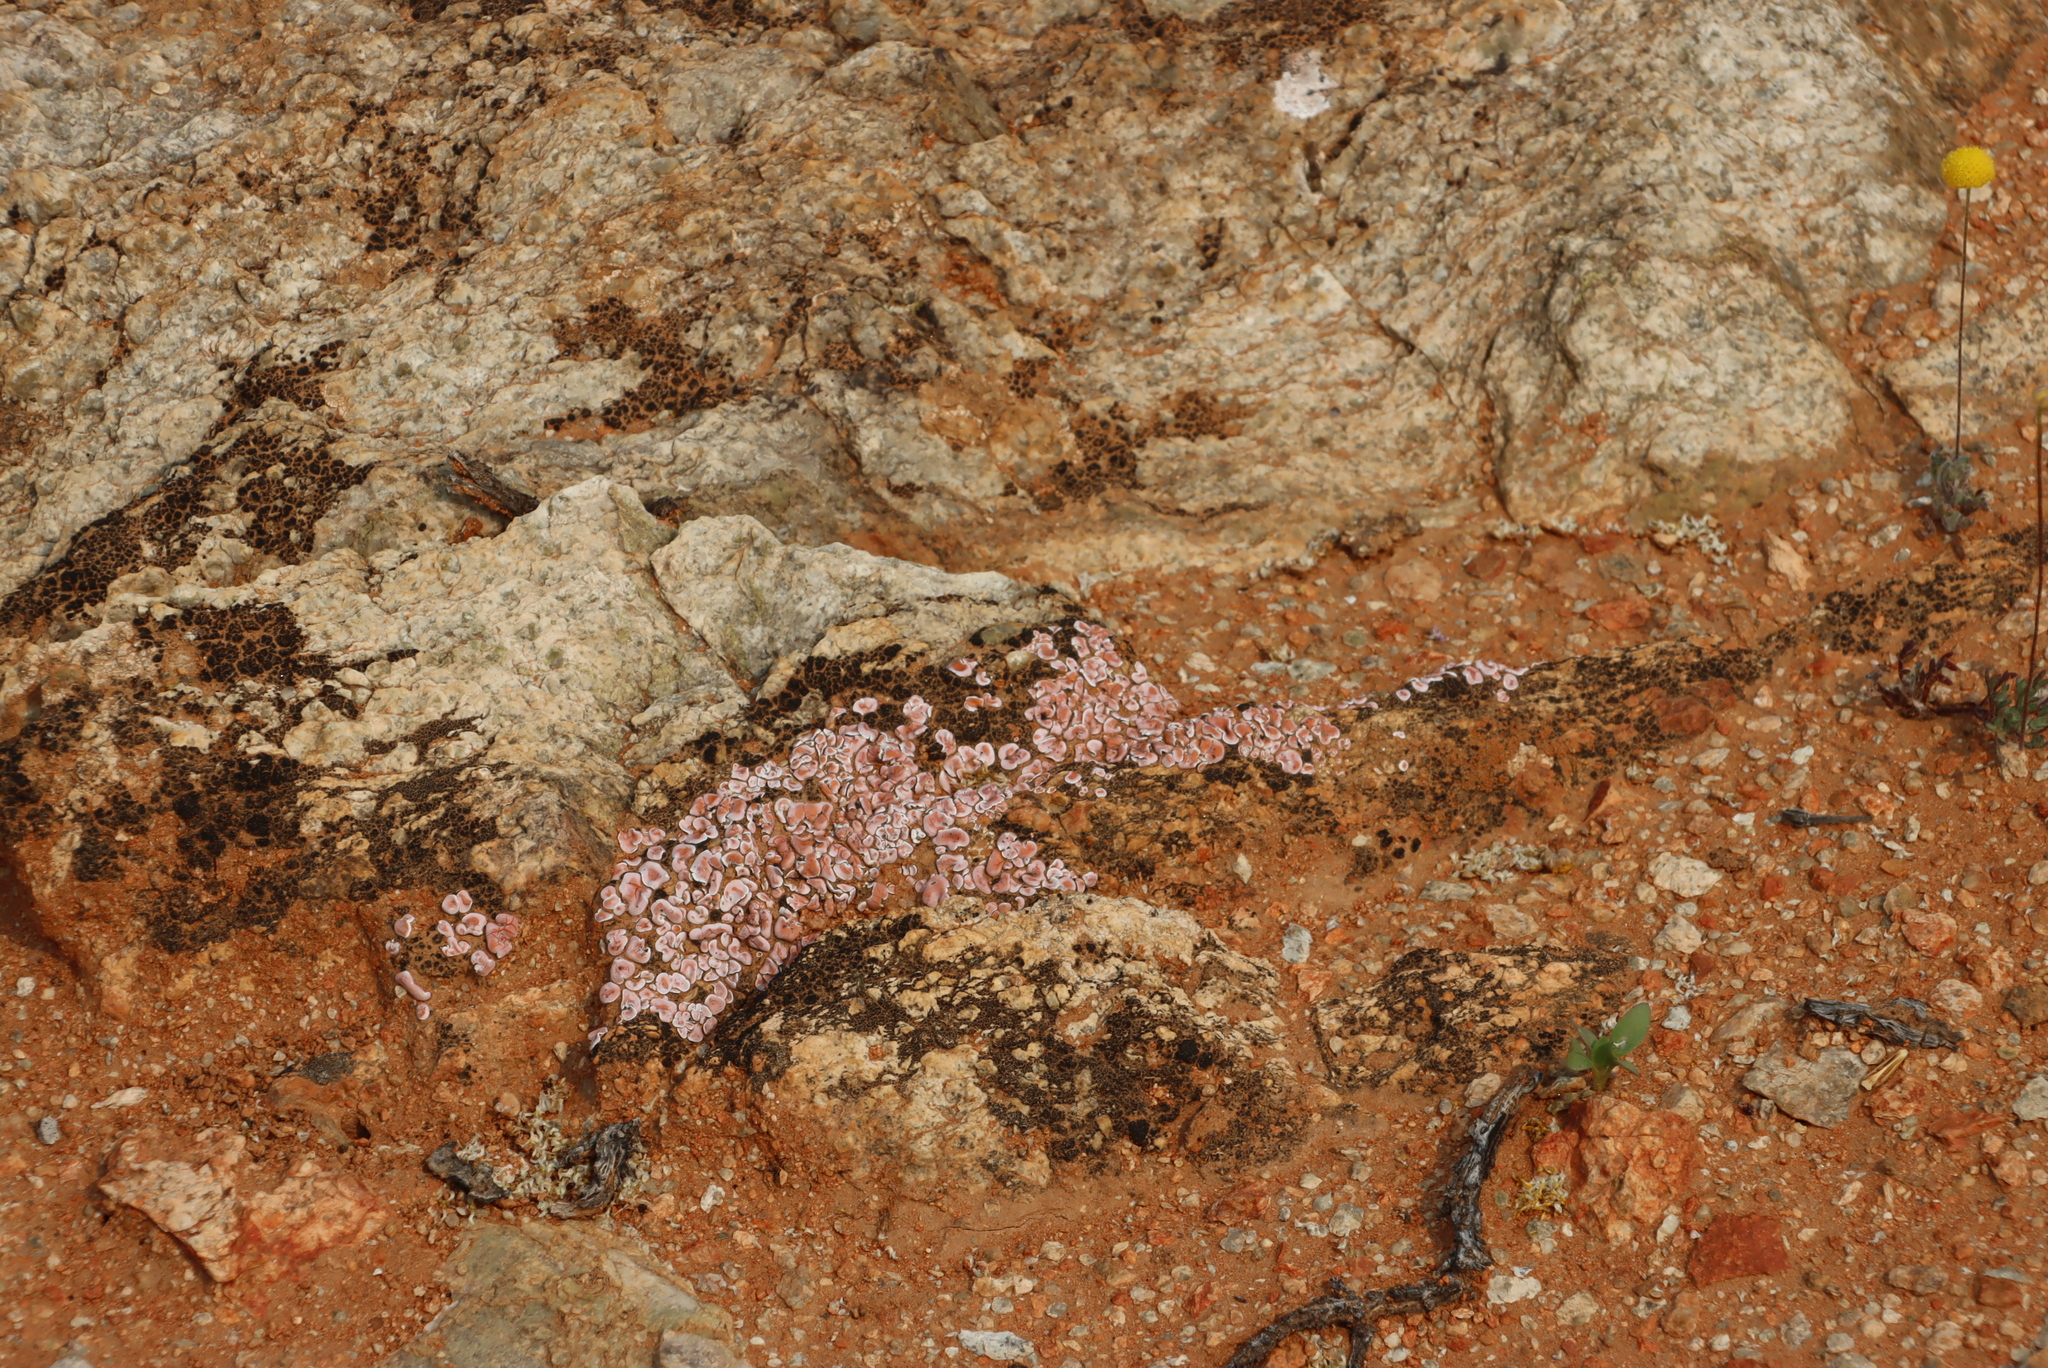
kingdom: Fungi
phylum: Ascomycota
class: Lecanoromycetes
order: Lecanorales
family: Psoraceae
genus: Psora
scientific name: Psora crenata
